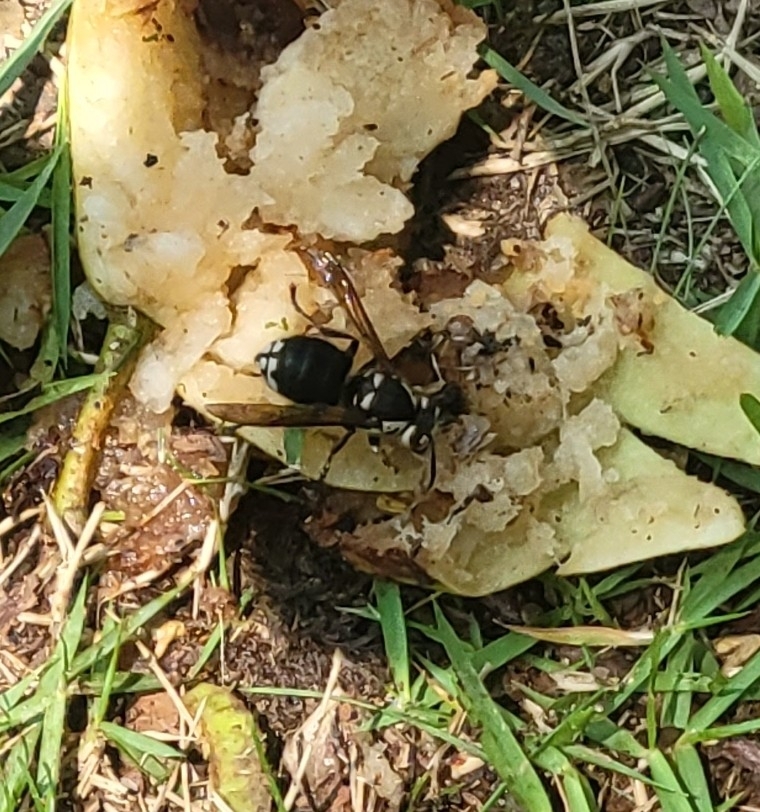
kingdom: Animalia
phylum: Arthropoda
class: Insecta
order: Hymenoptera
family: Vespidae
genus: Dolichovespula
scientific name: Dolichovespula maculata
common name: Bald-faced hornet
